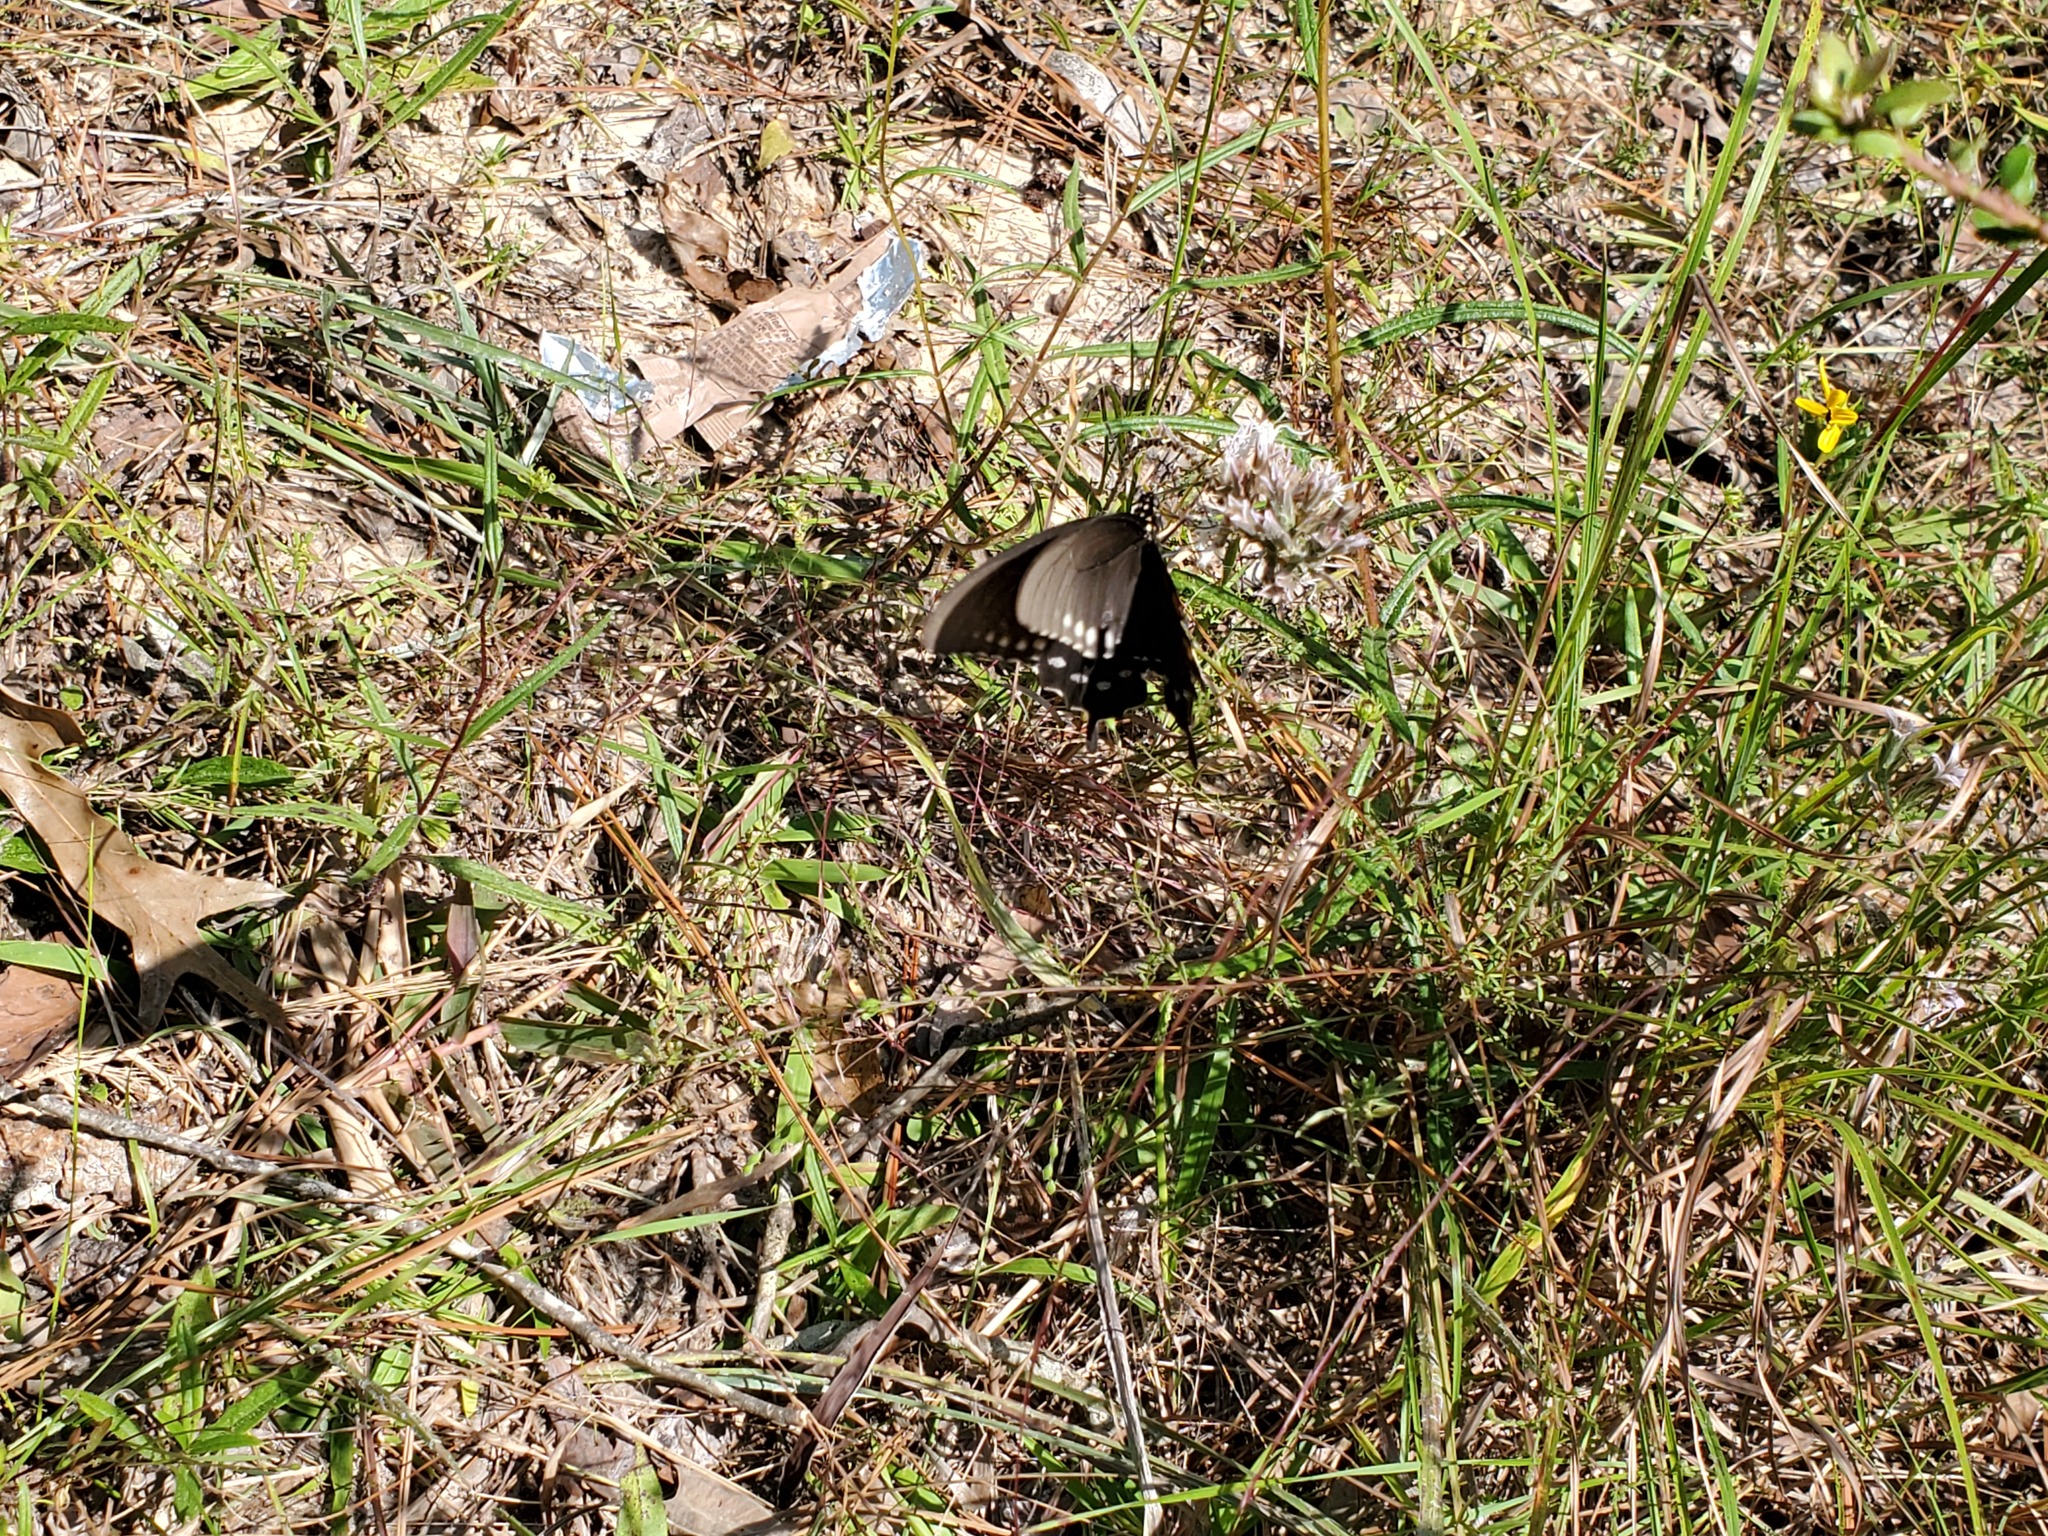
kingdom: Animalia
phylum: Arthropoda
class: Insecta
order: Lepidoptera
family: Papilionidae
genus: Battus
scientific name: Battus philenor
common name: Pipevine swallowtail
